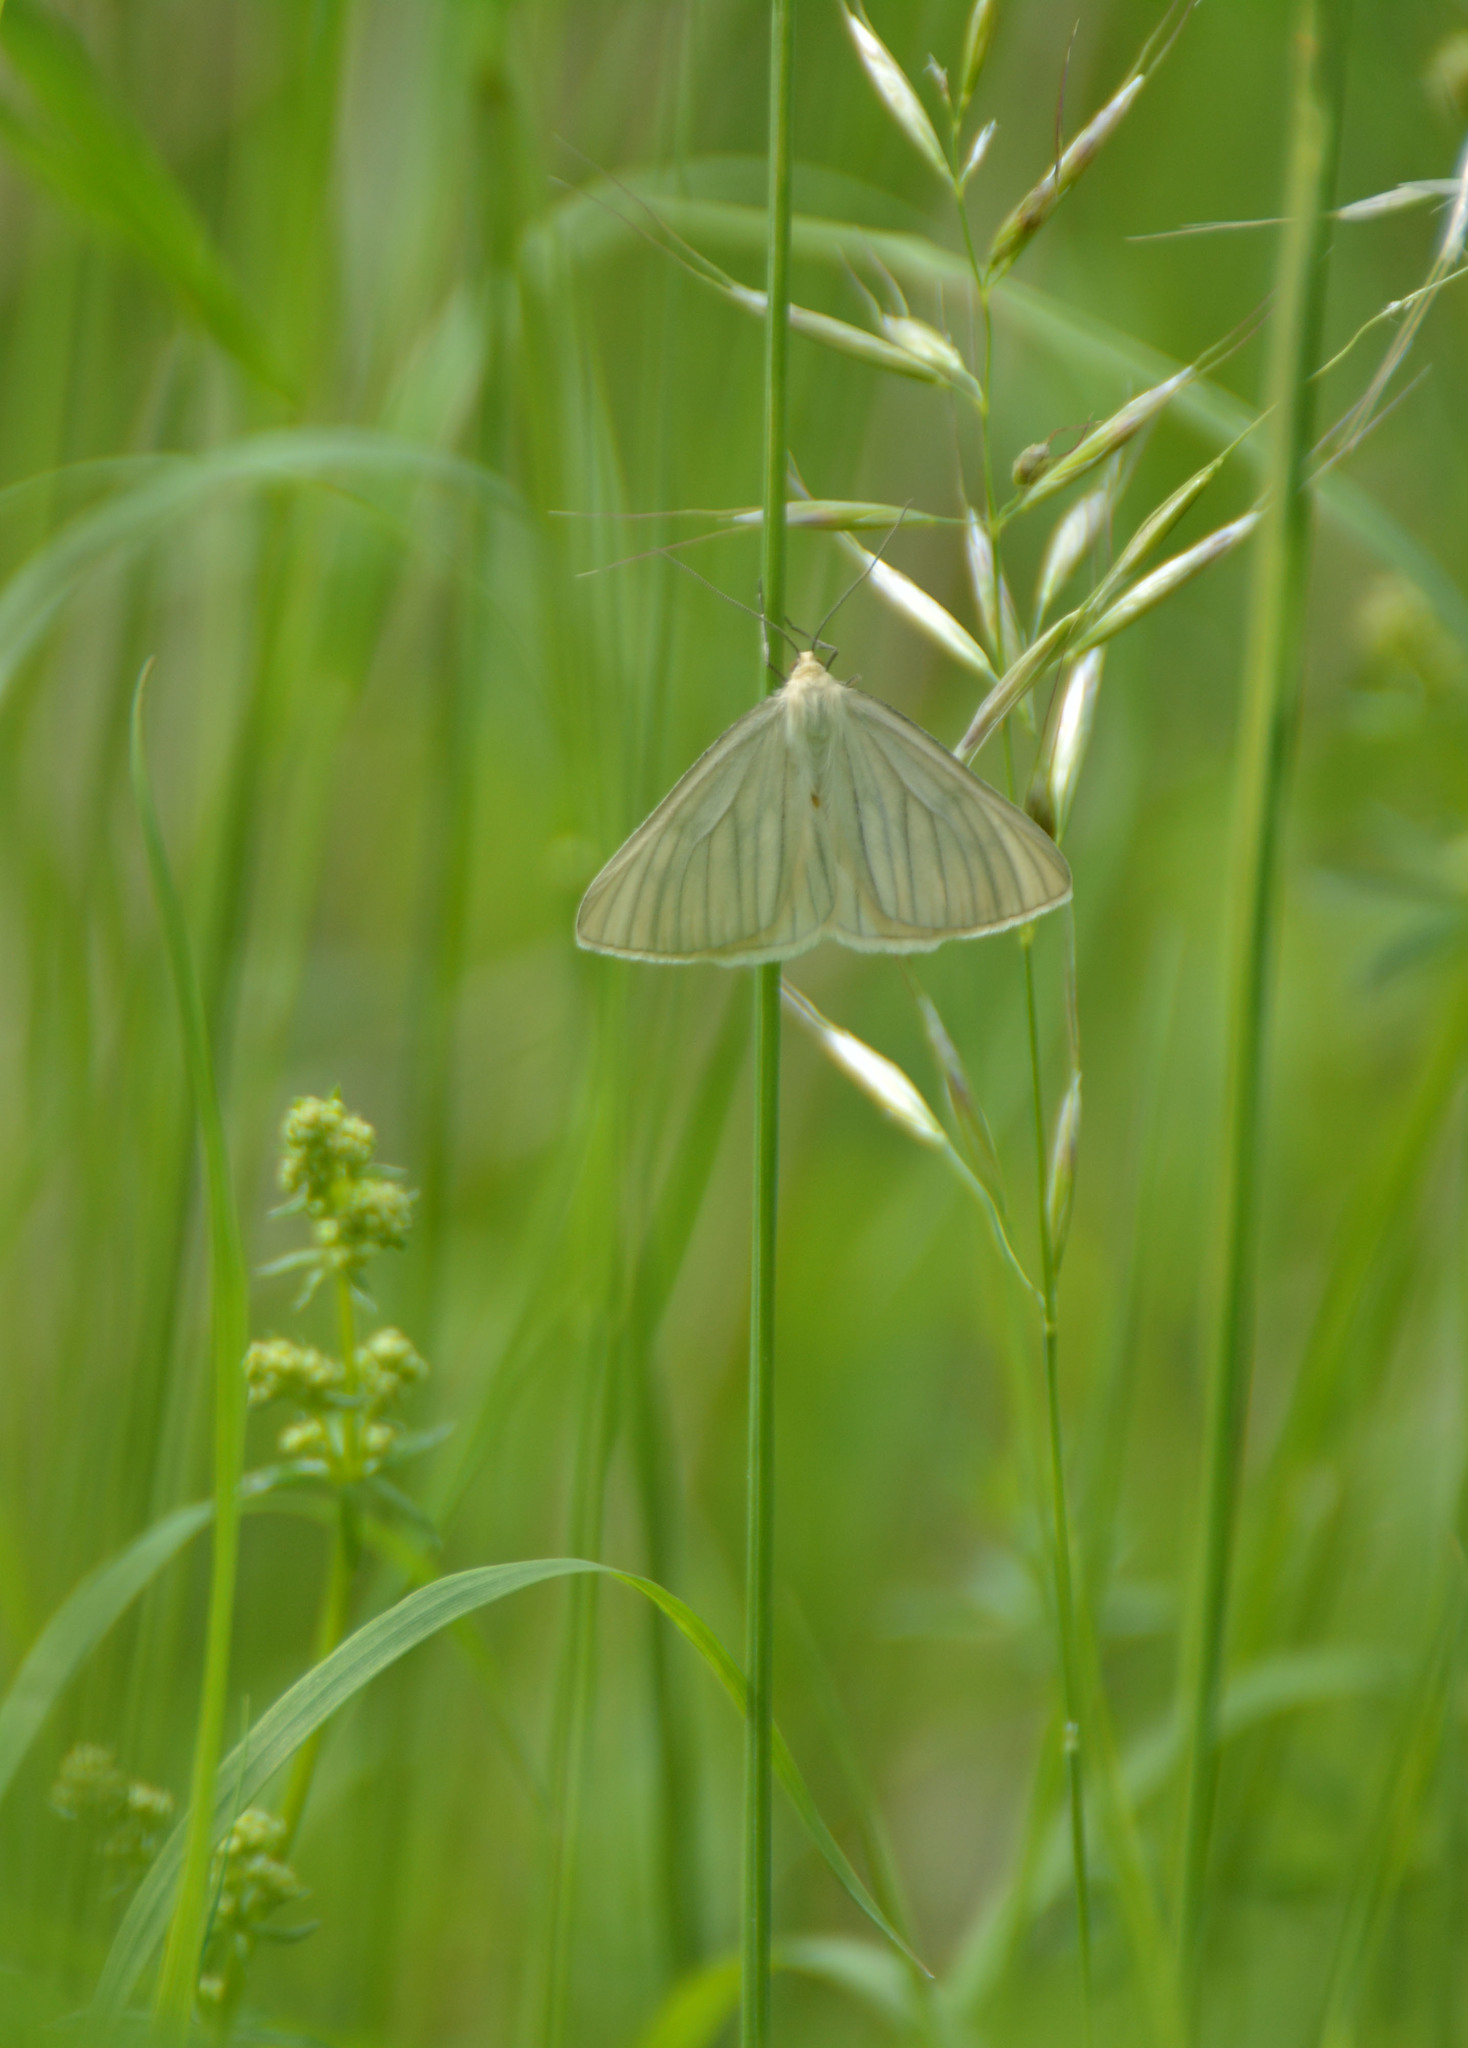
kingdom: Animalia
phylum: Arthropoda
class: Insecta
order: Lepidoptera
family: Geometridae
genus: Siona
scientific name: Siona lineata
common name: Black-veined moth
